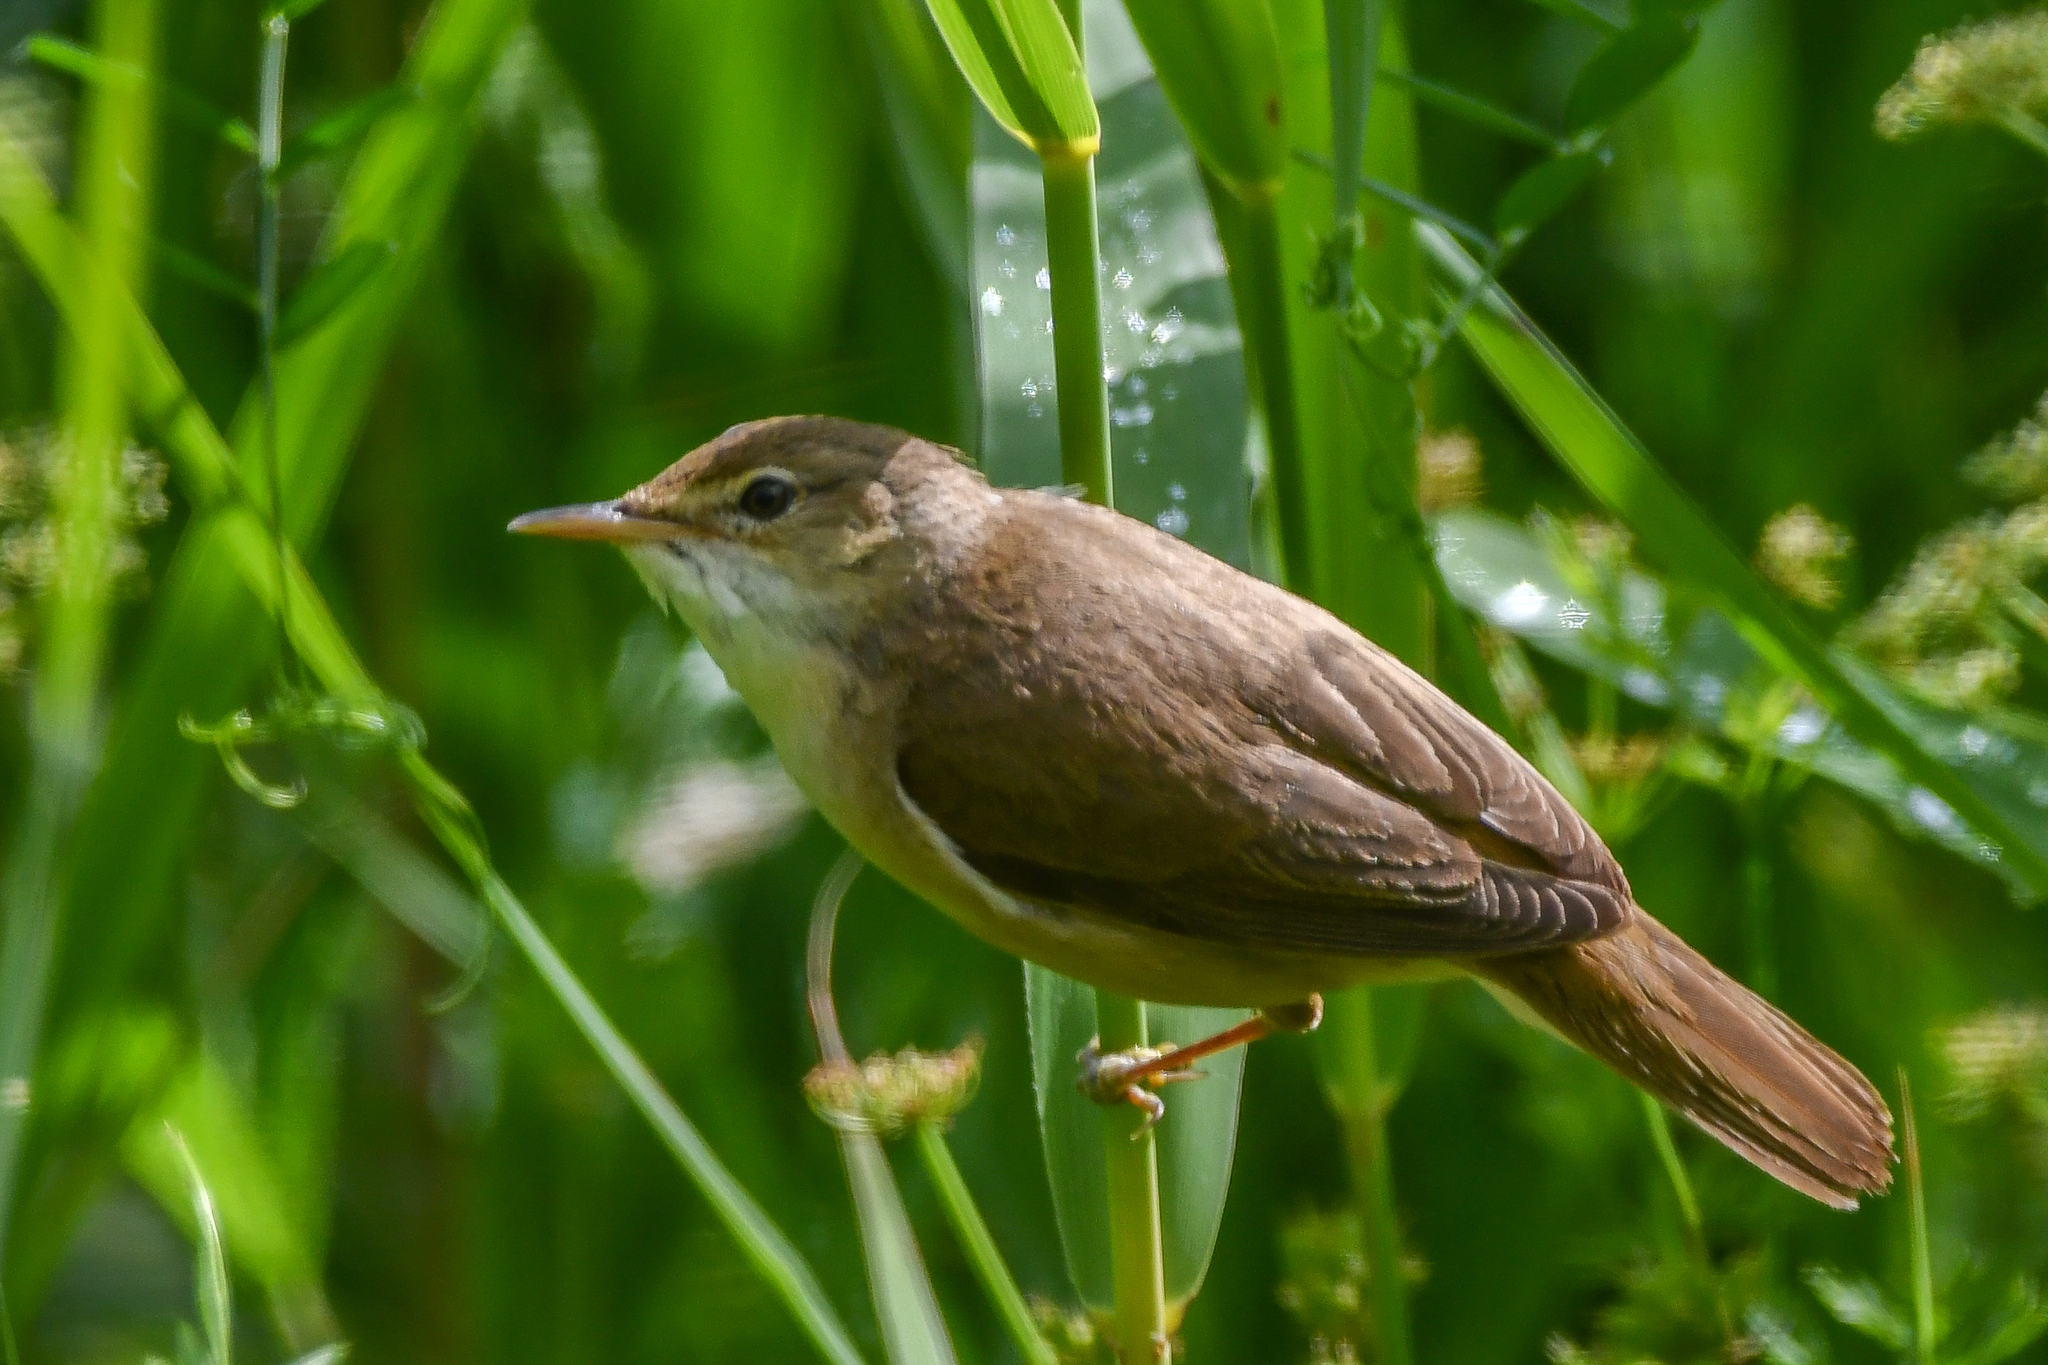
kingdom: Animalia
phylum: Chordata
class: Aves
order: Passeriformes
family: Acrocephalidae
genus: Acrocephalus
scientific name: Acrocephalus scirpaceus
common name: Eurasian reed warbler
